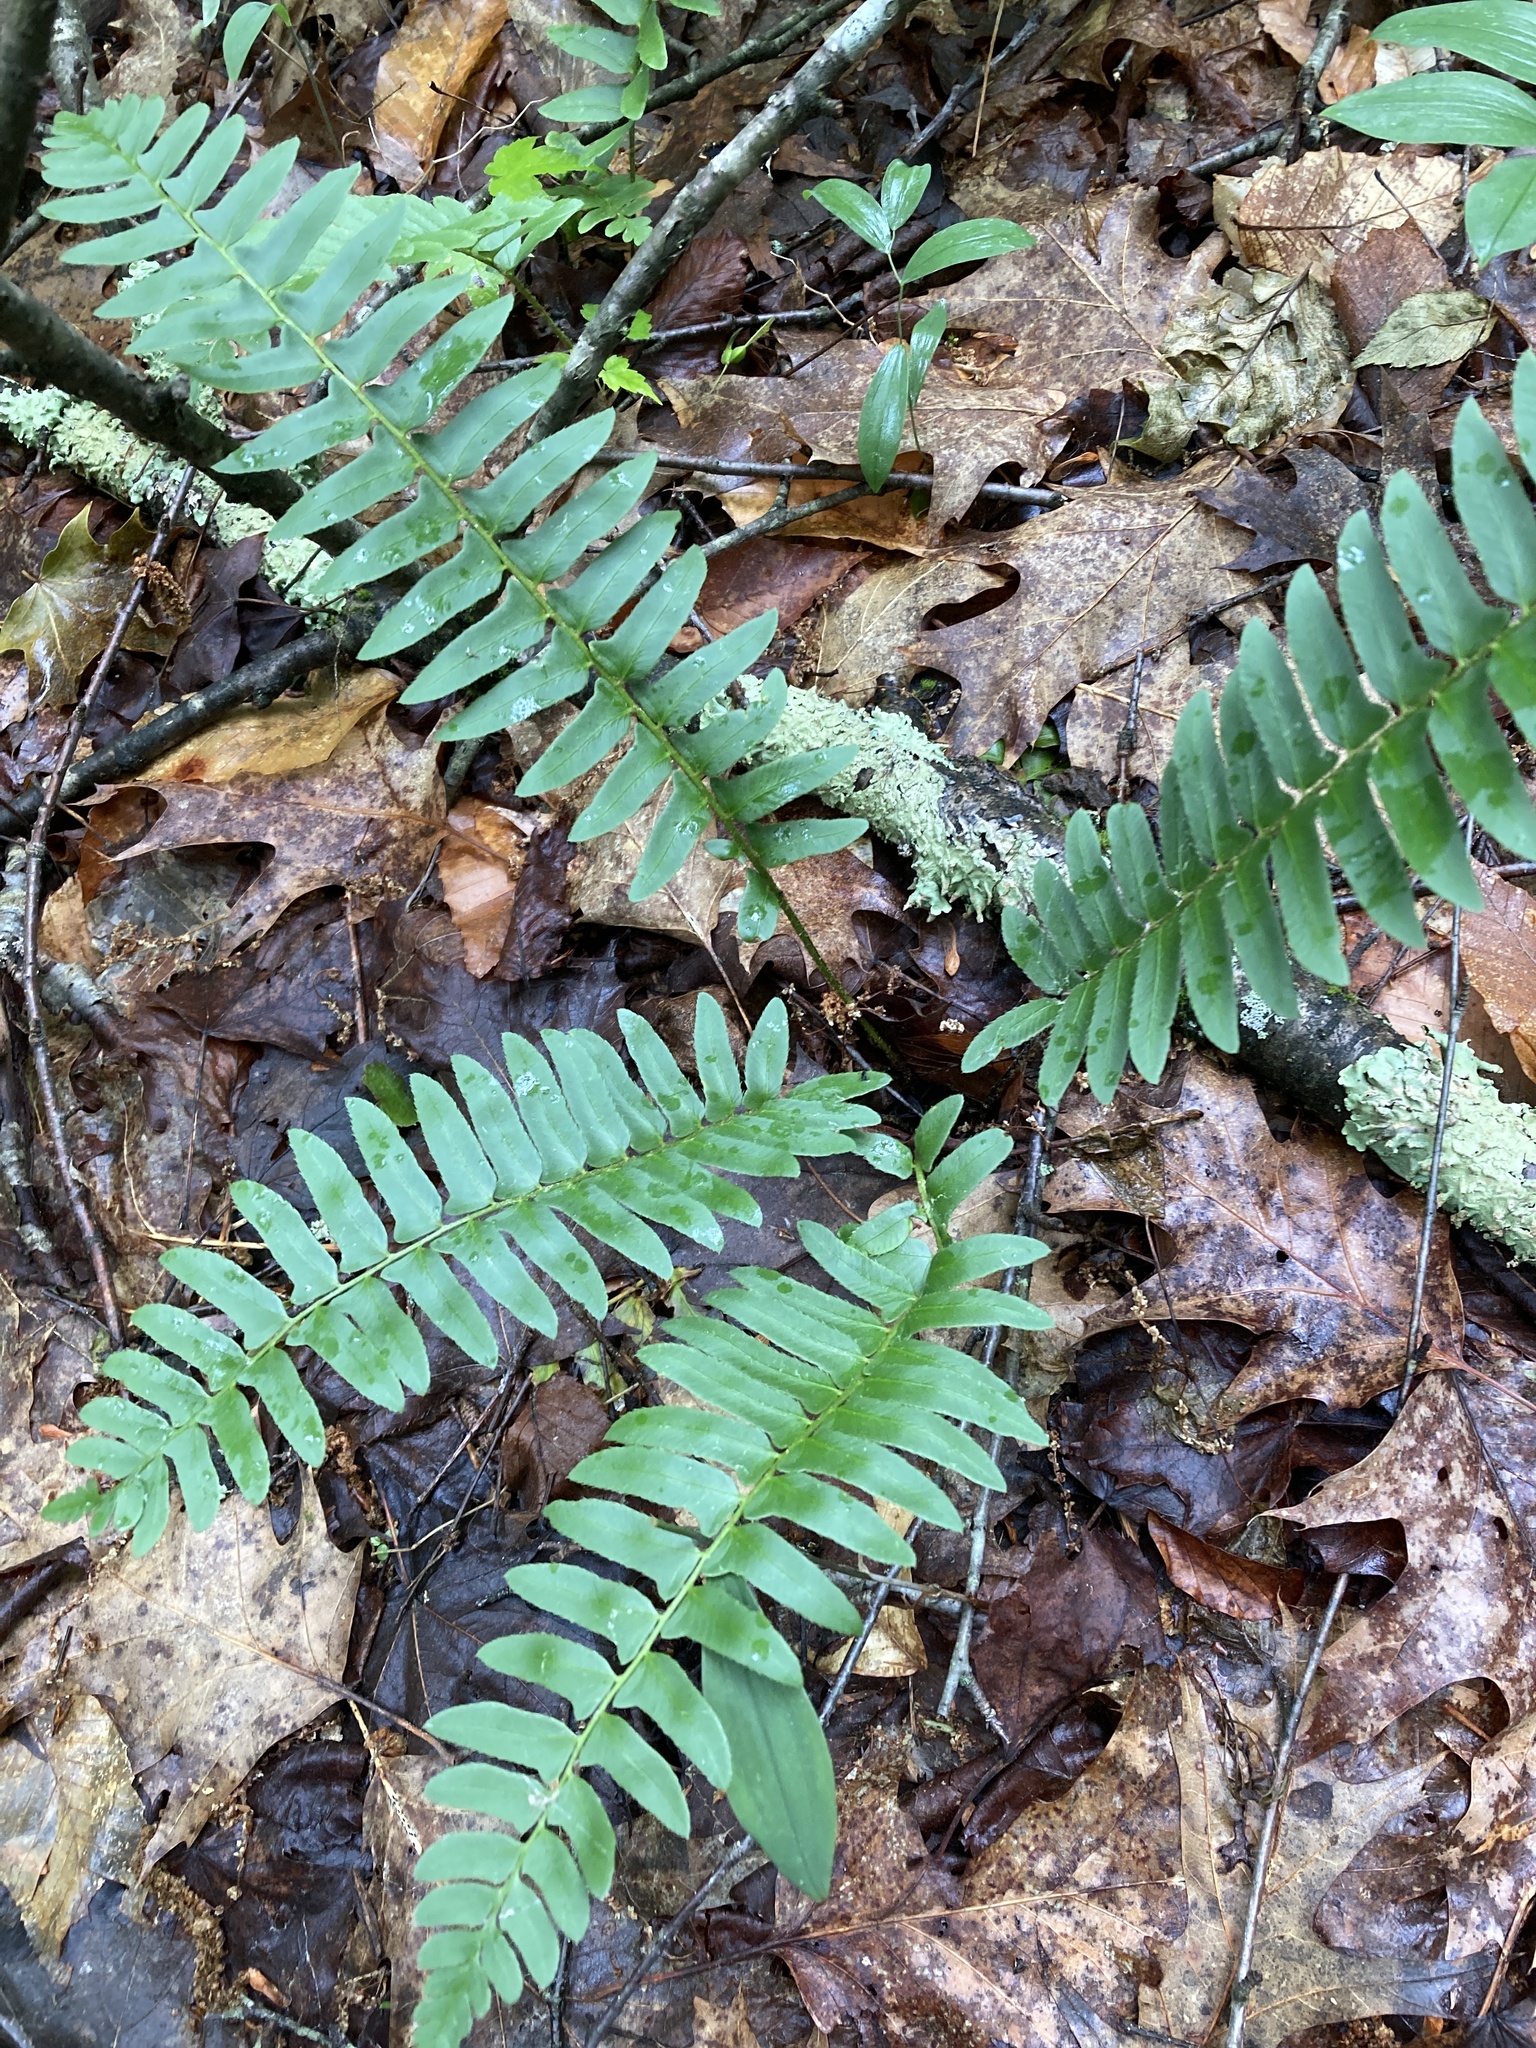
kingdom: Plantae
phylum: Tracheophyta
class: Polypodiopsida
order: Polypodiales
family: Dryopteridaceae
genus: Polystichum
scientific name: Polystichum acrostichoides
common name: Christmas fern
